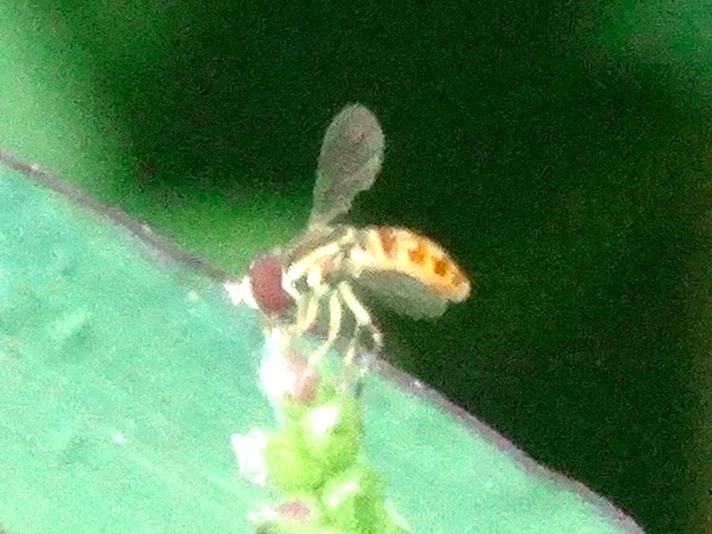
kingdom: Animalia
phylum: Arthropoda
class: Insecta
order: Diptera
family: Syrphidae
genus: Toxomerus
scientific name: Toxomerus
